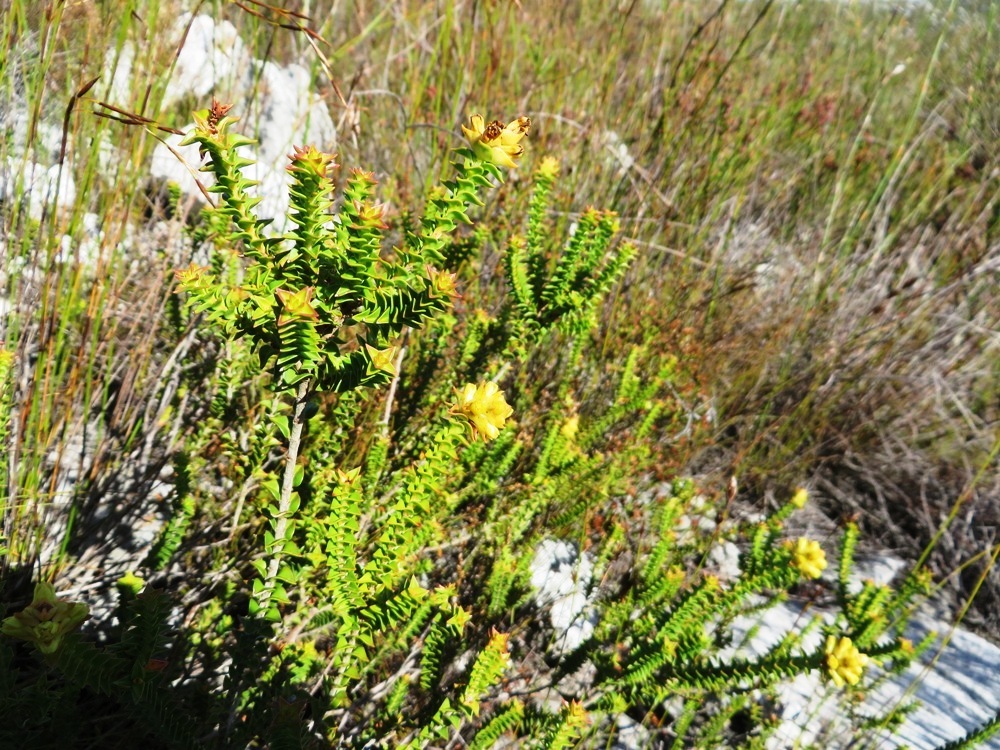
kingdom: Plantae
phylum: Tracheophyta
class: Magnoliopsida
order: Myrtales
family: Penaeaceae
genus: Penaea
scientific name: Penaea mucronata
